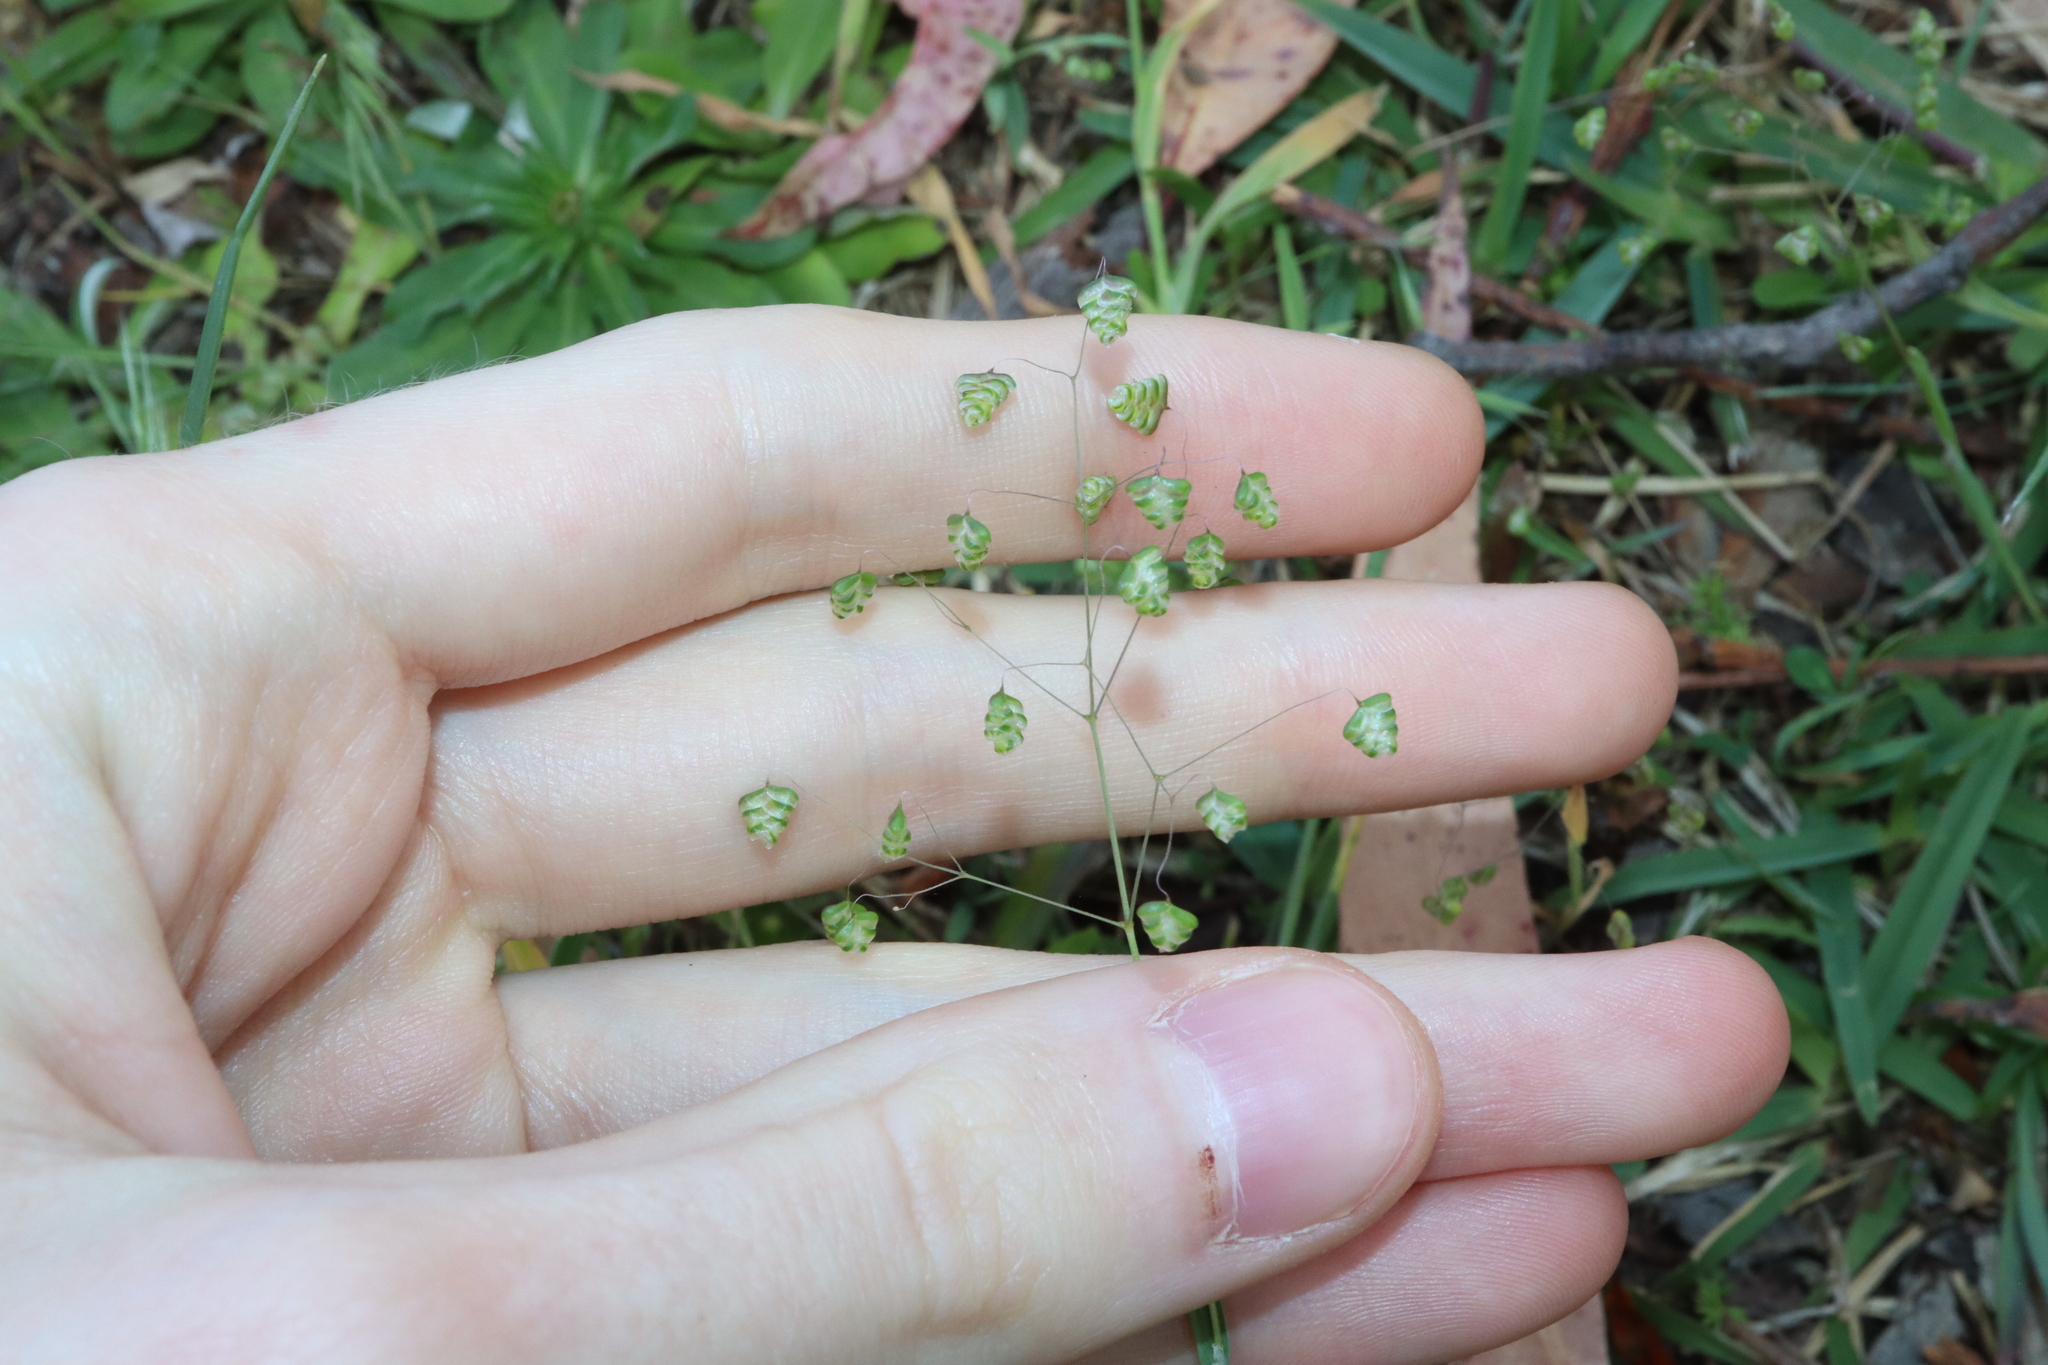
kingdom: Plantae
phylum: Tracheophyta
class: Liliopsida
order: Poales
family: Poaceae
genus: Briza
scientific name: Briza minor
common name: Lesser quaking-grass
